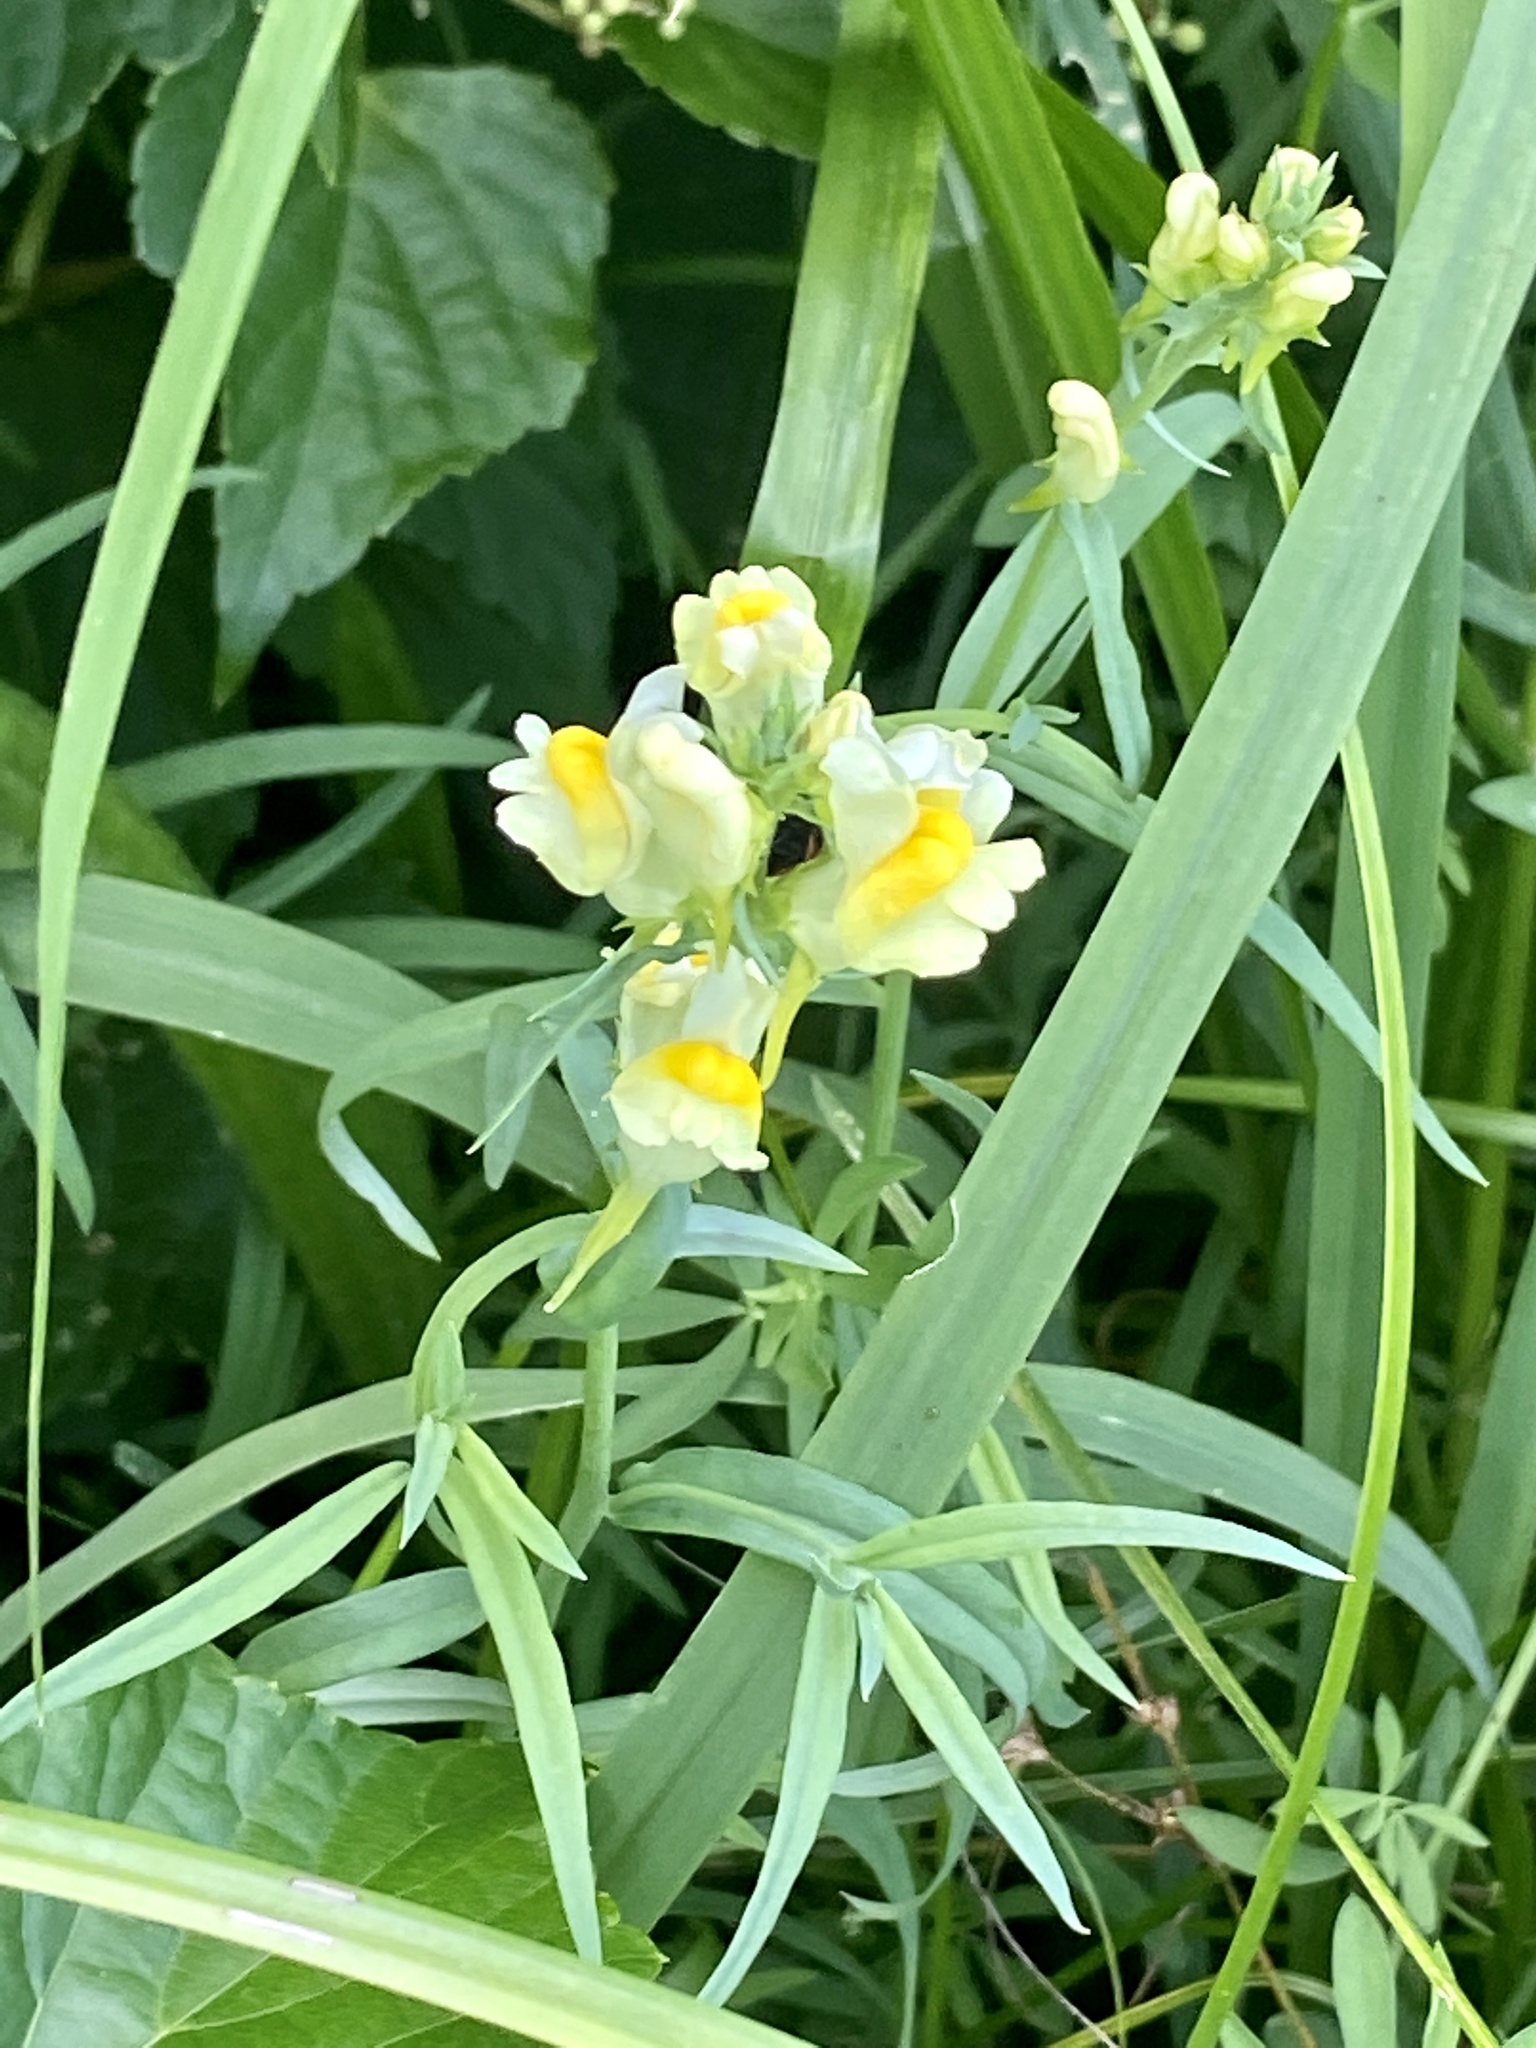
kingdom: Plantae
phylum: Tracheophyta
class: Magnoliopsida
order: Lamiales
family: Plantaginaceae
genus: Linaria
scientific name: Linaria vulgaris
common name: Butter and eggs
